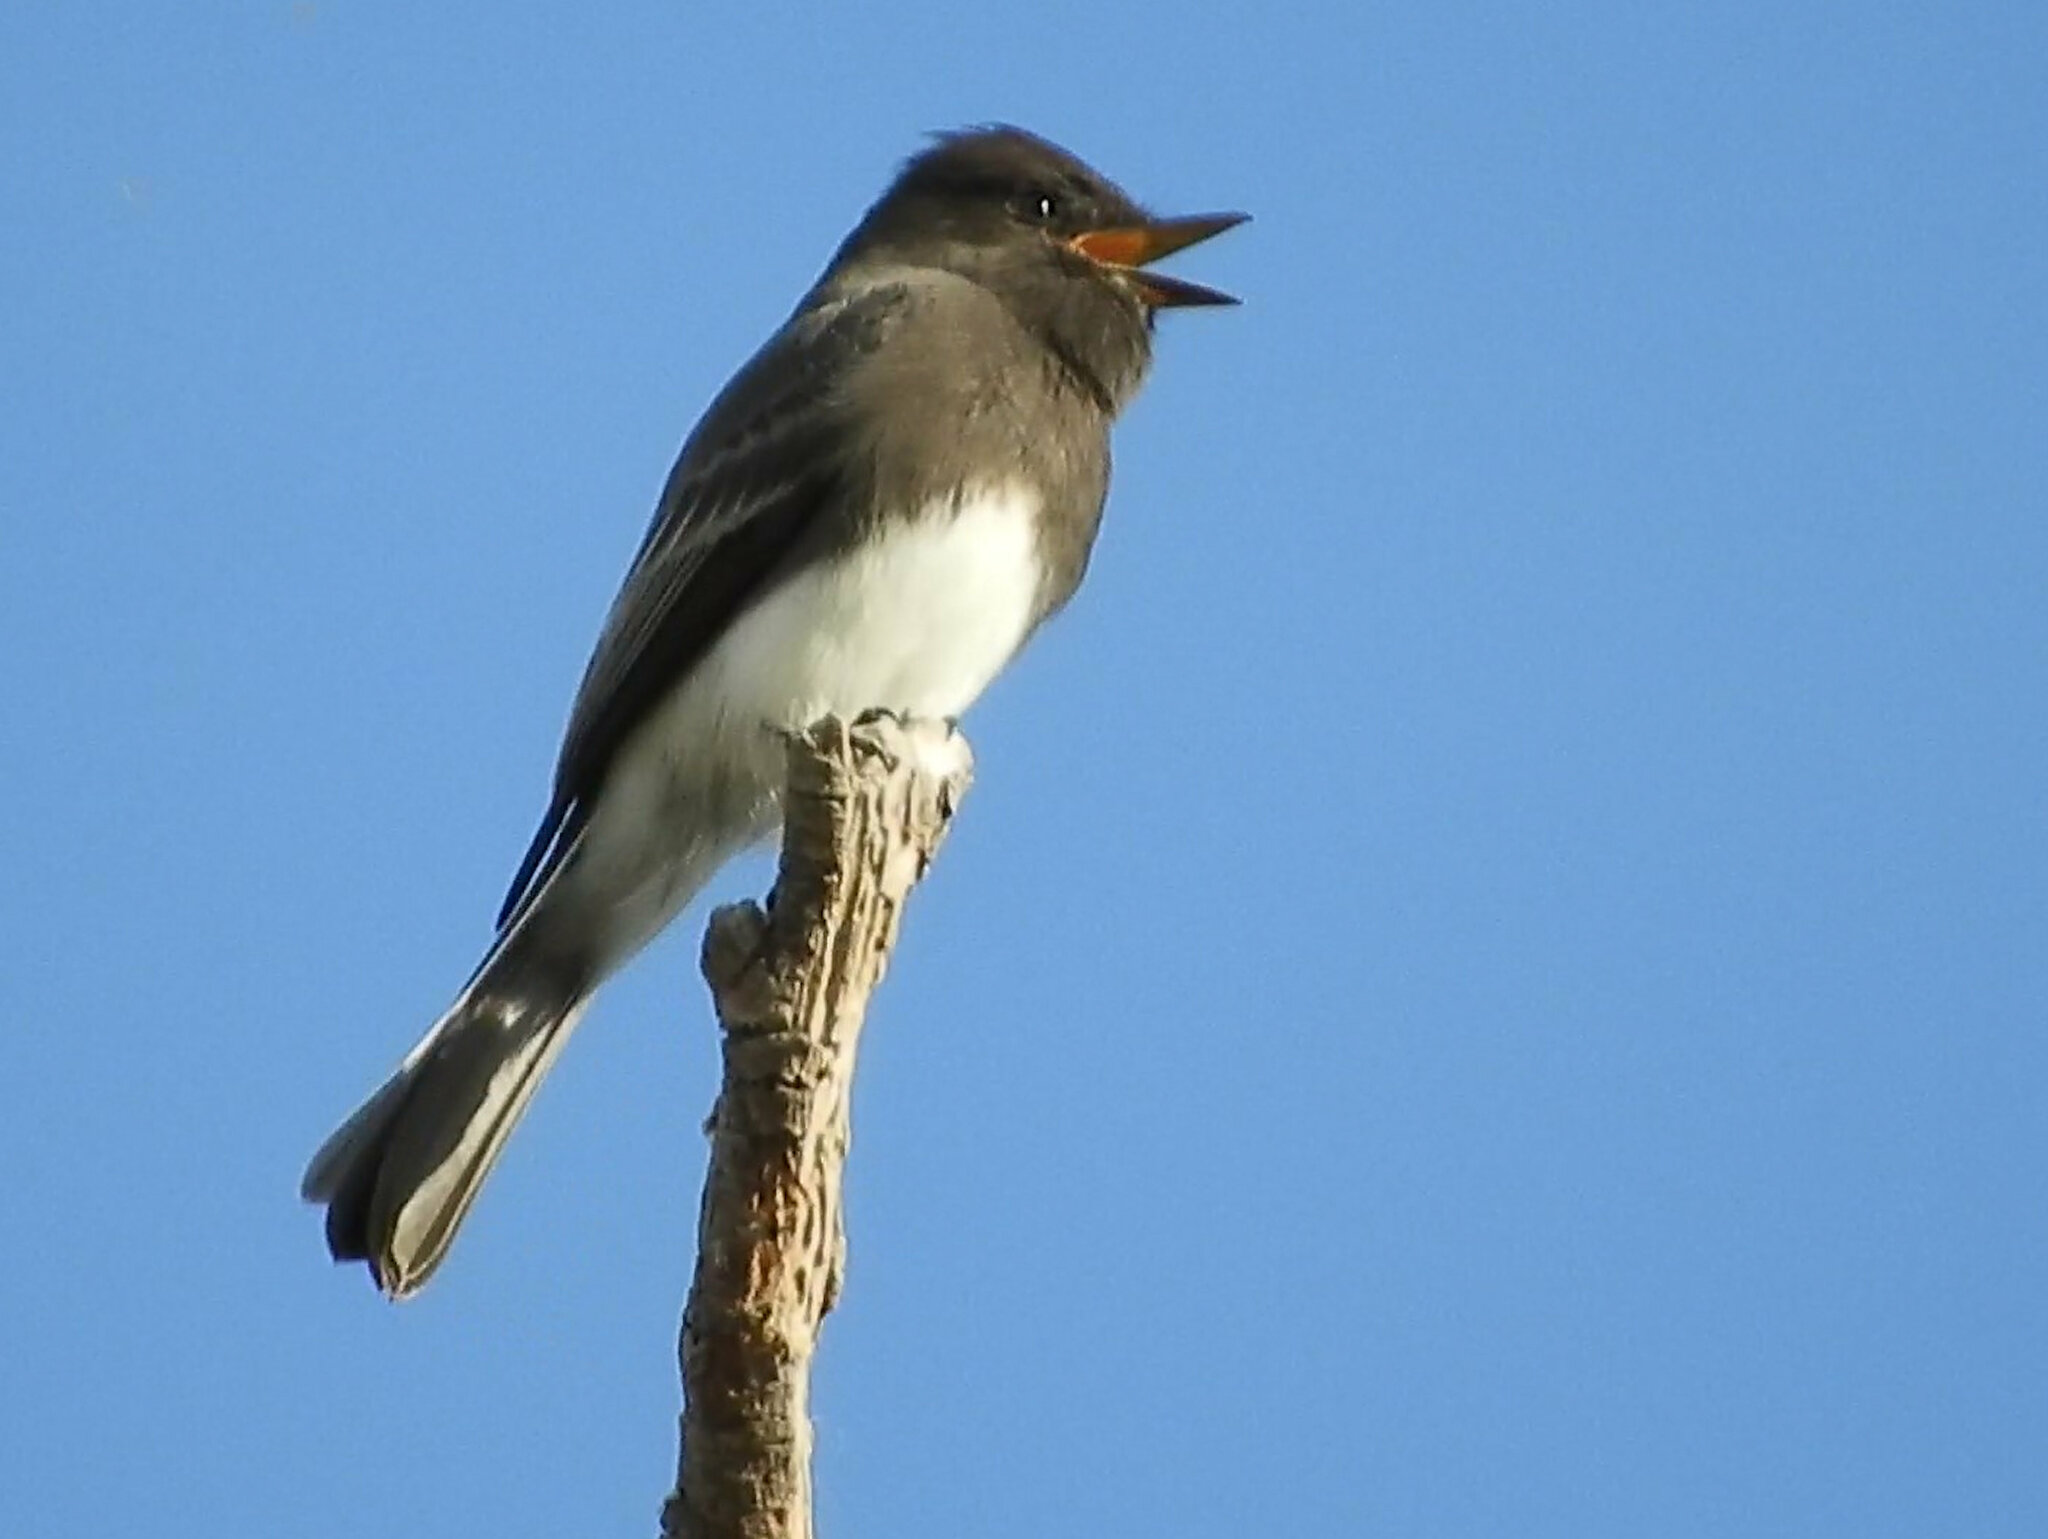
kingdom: Animalia
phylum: Chordata
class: Aves
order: Passeriformes
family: Tyrannidae
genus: Sayornis
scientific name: Sayornis nigricans
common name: Black phoebe
